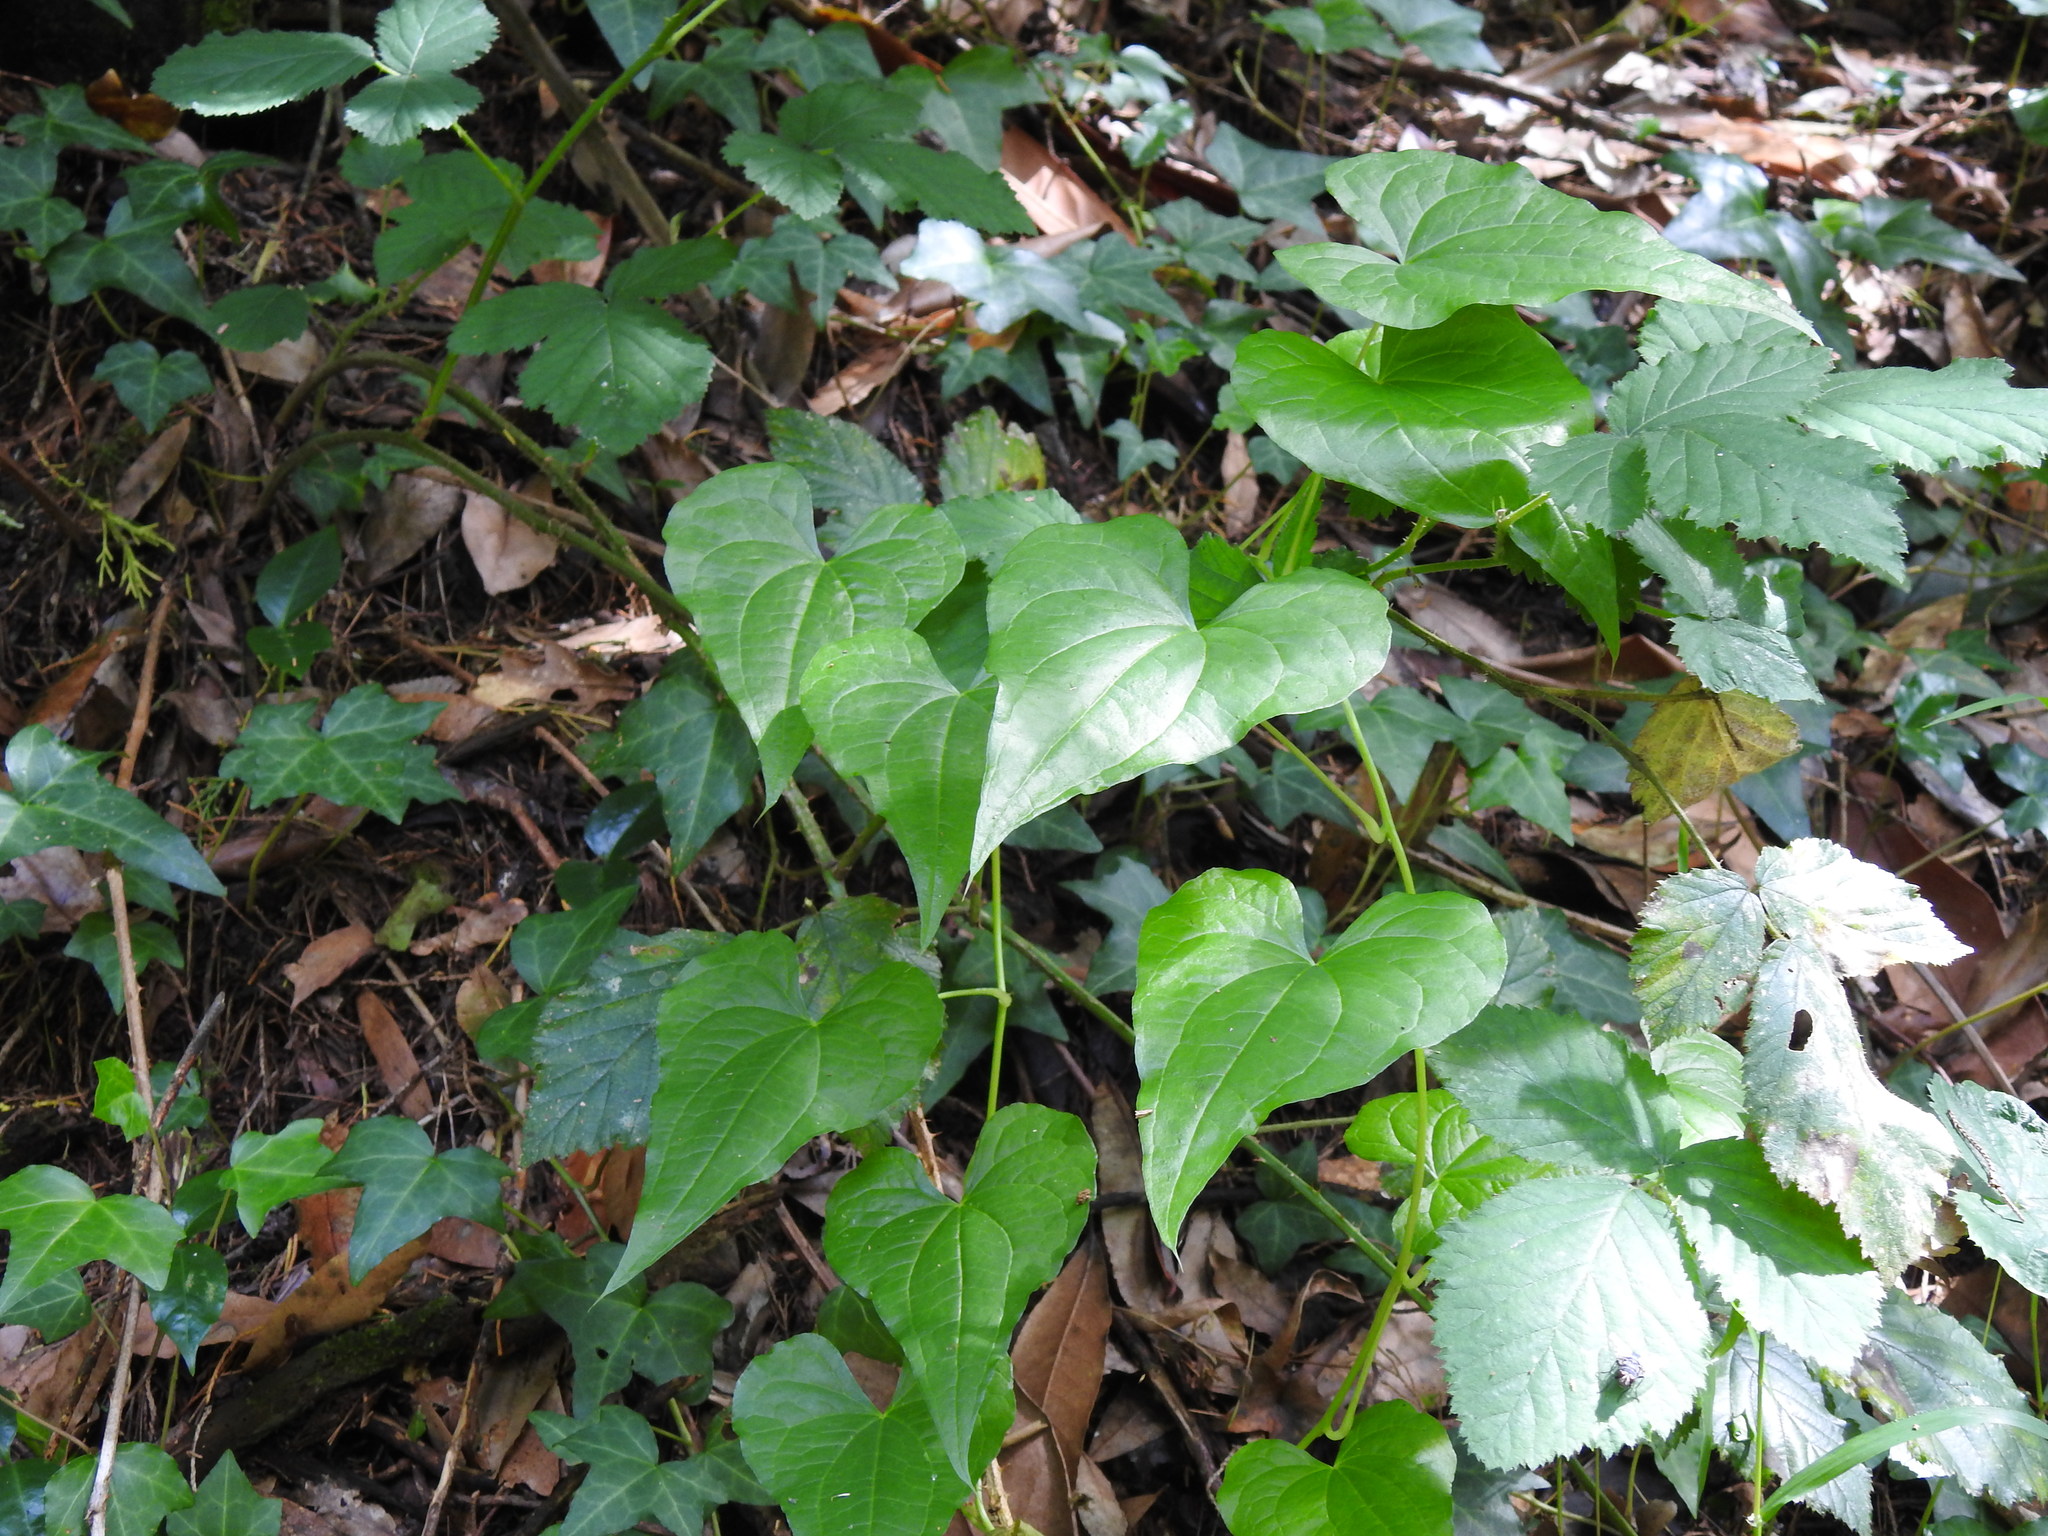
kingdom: Plantae
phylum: Tracheophyta
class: Liliopsida
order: Dioscoreales
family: Dioscoreaceae
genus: Dioscorea
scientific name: Dioscorea communis
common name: Black-bindweed
